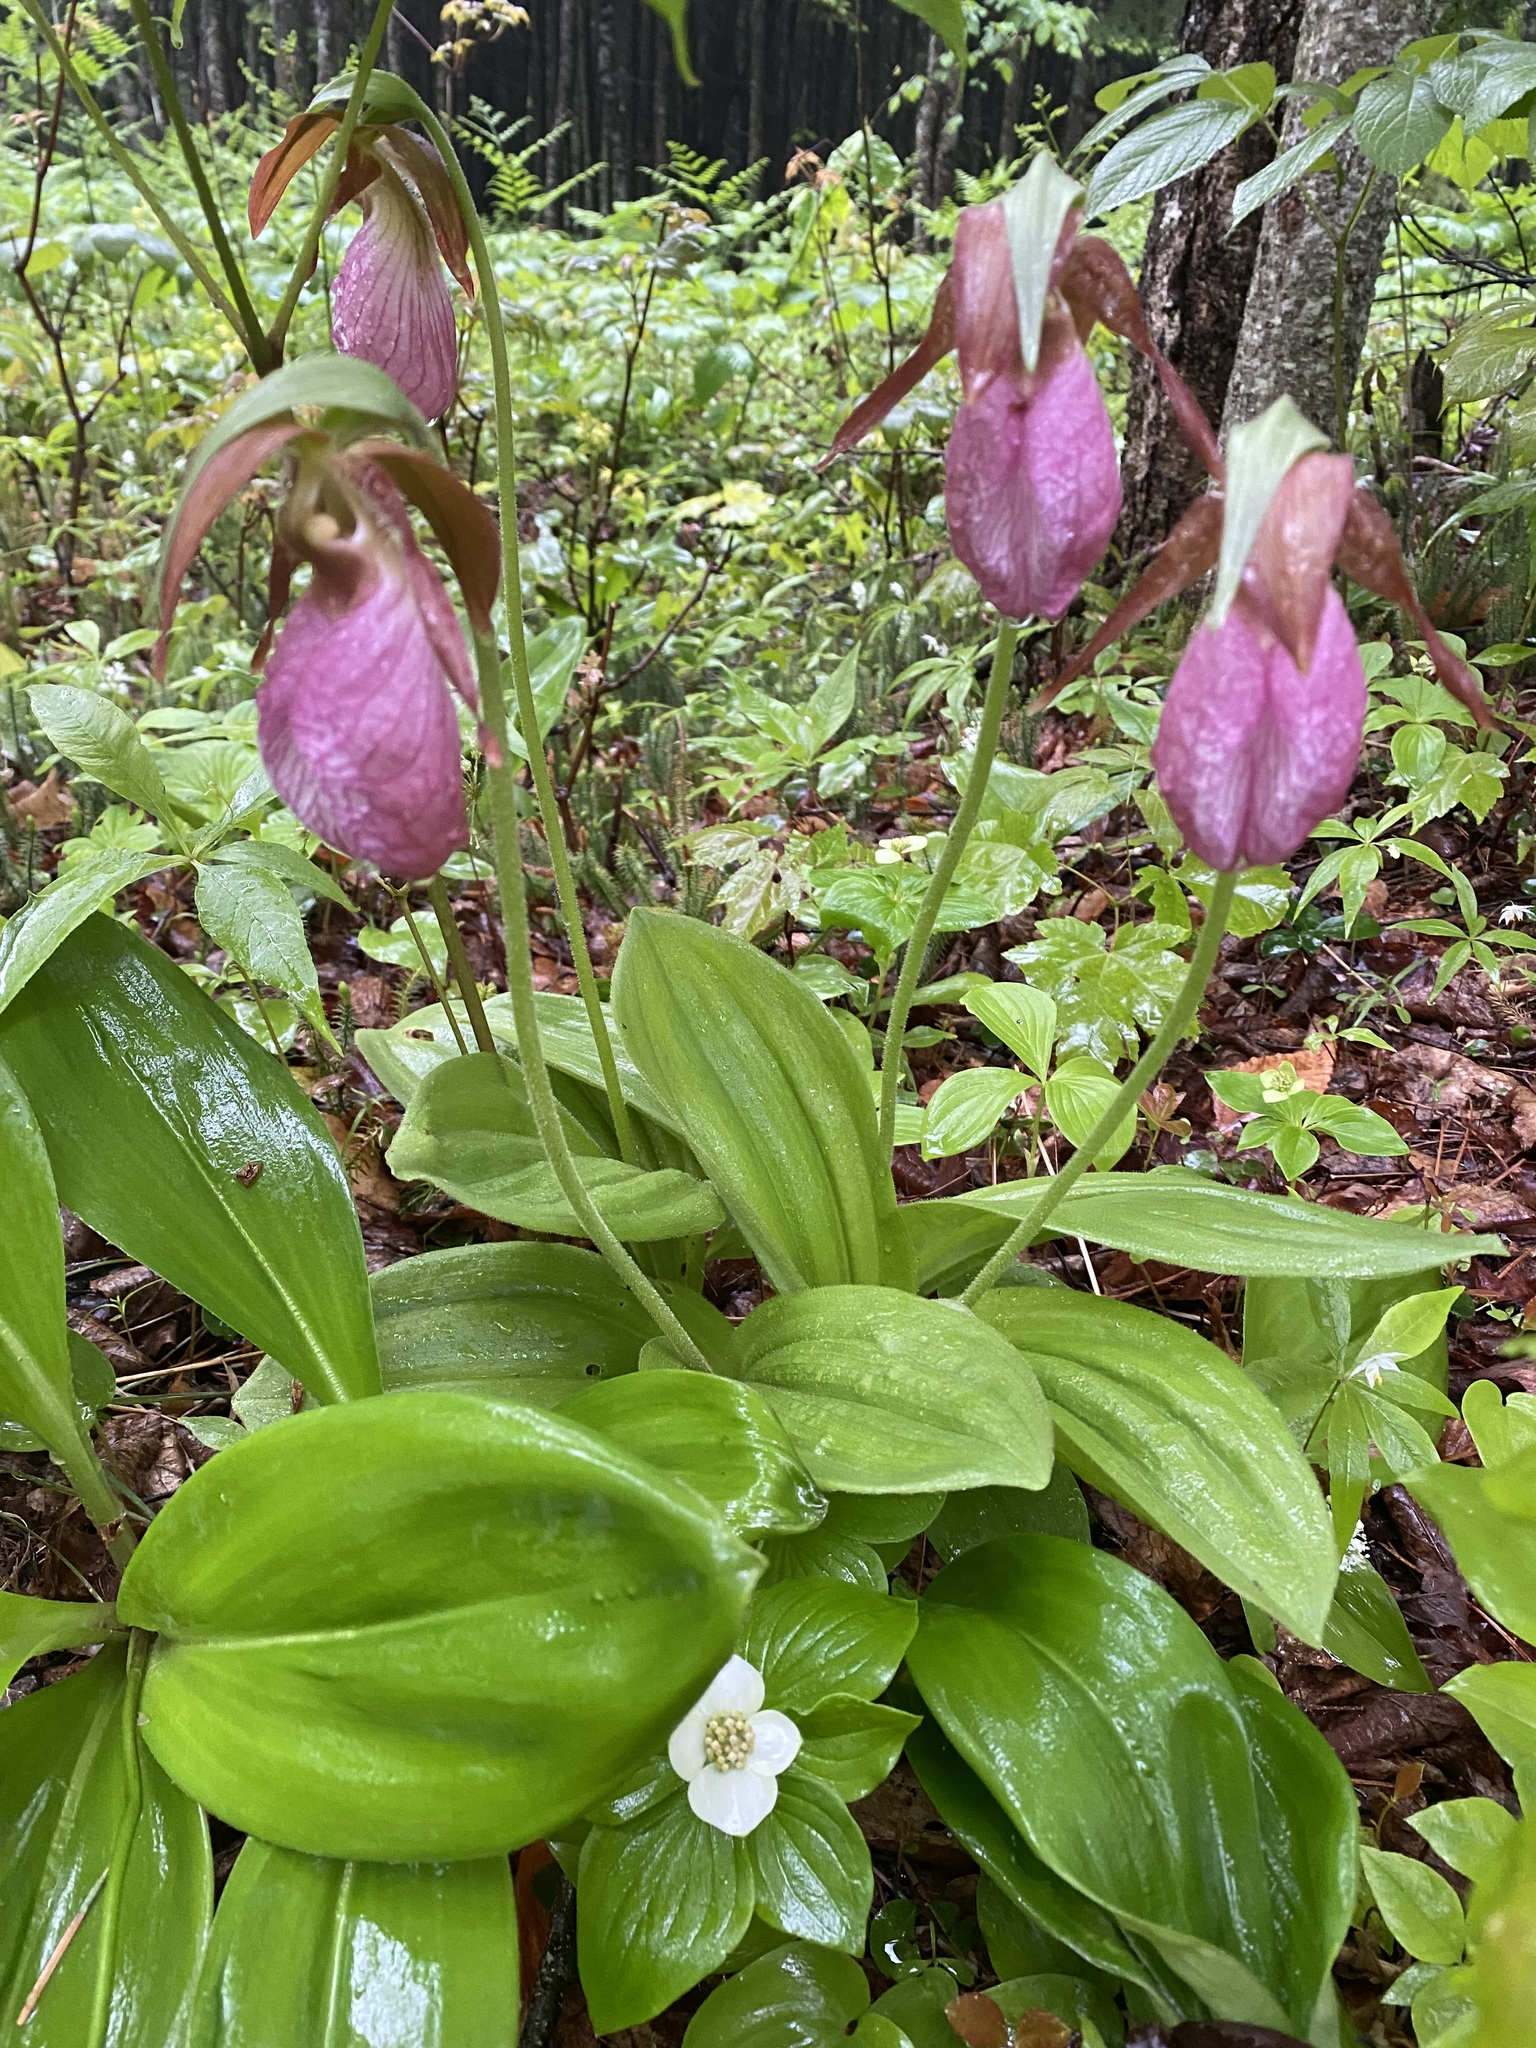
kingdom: Plantae
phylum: Tracheophyta
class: Liliopsida
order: Asparagales
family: Orchidaceae
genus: Cypripedium
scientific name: Cypripedium acaule
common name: Pink lady's-slipper
